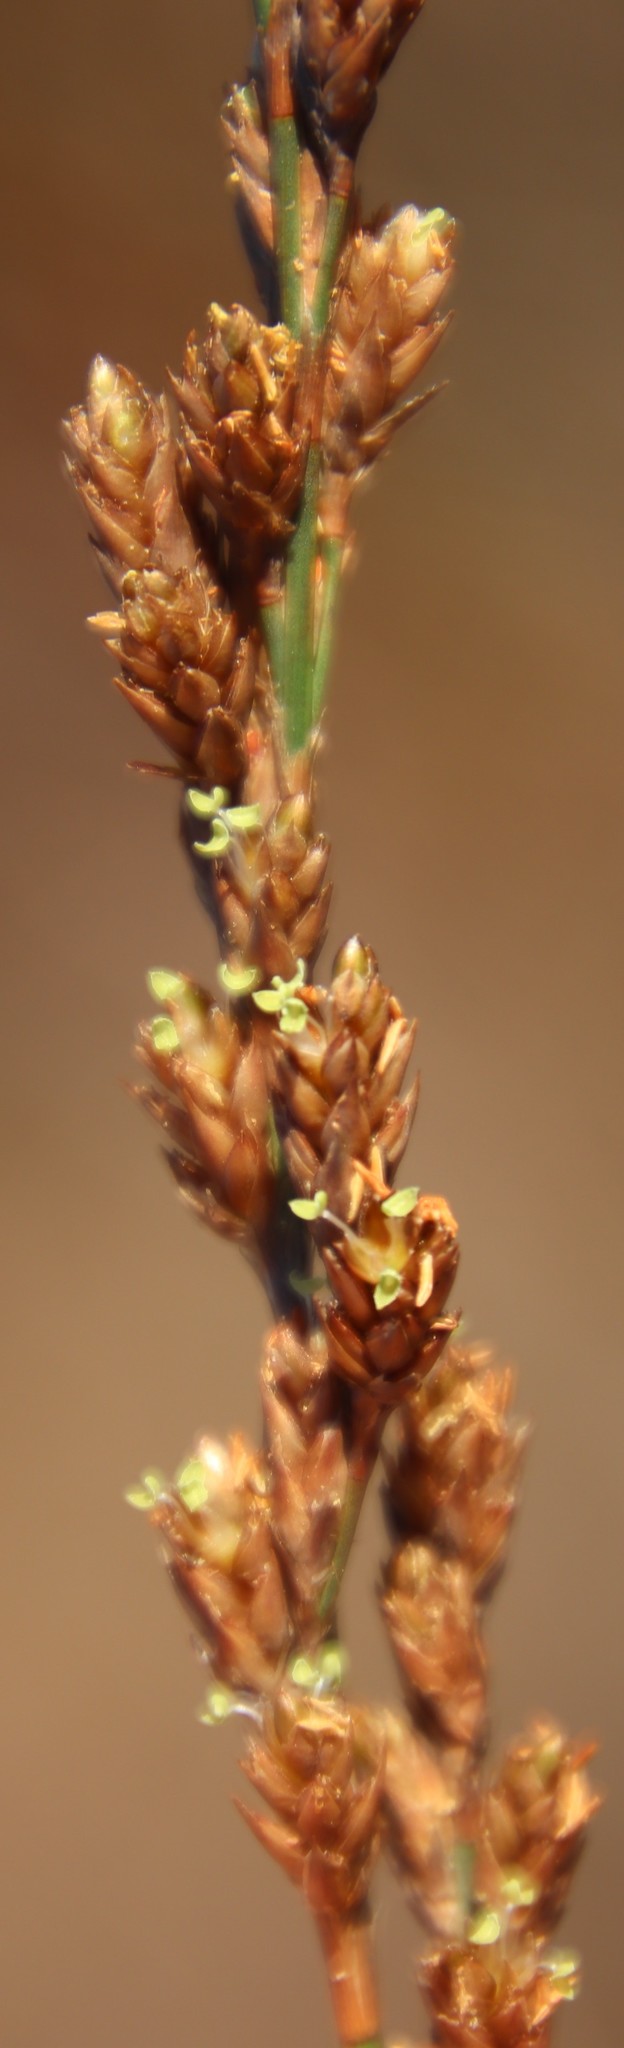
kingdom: Plantae
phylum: Tracheophyta
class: Liliopsida
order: Poales
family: Restionaceae
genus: Restio
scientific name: Restio tetragonus
